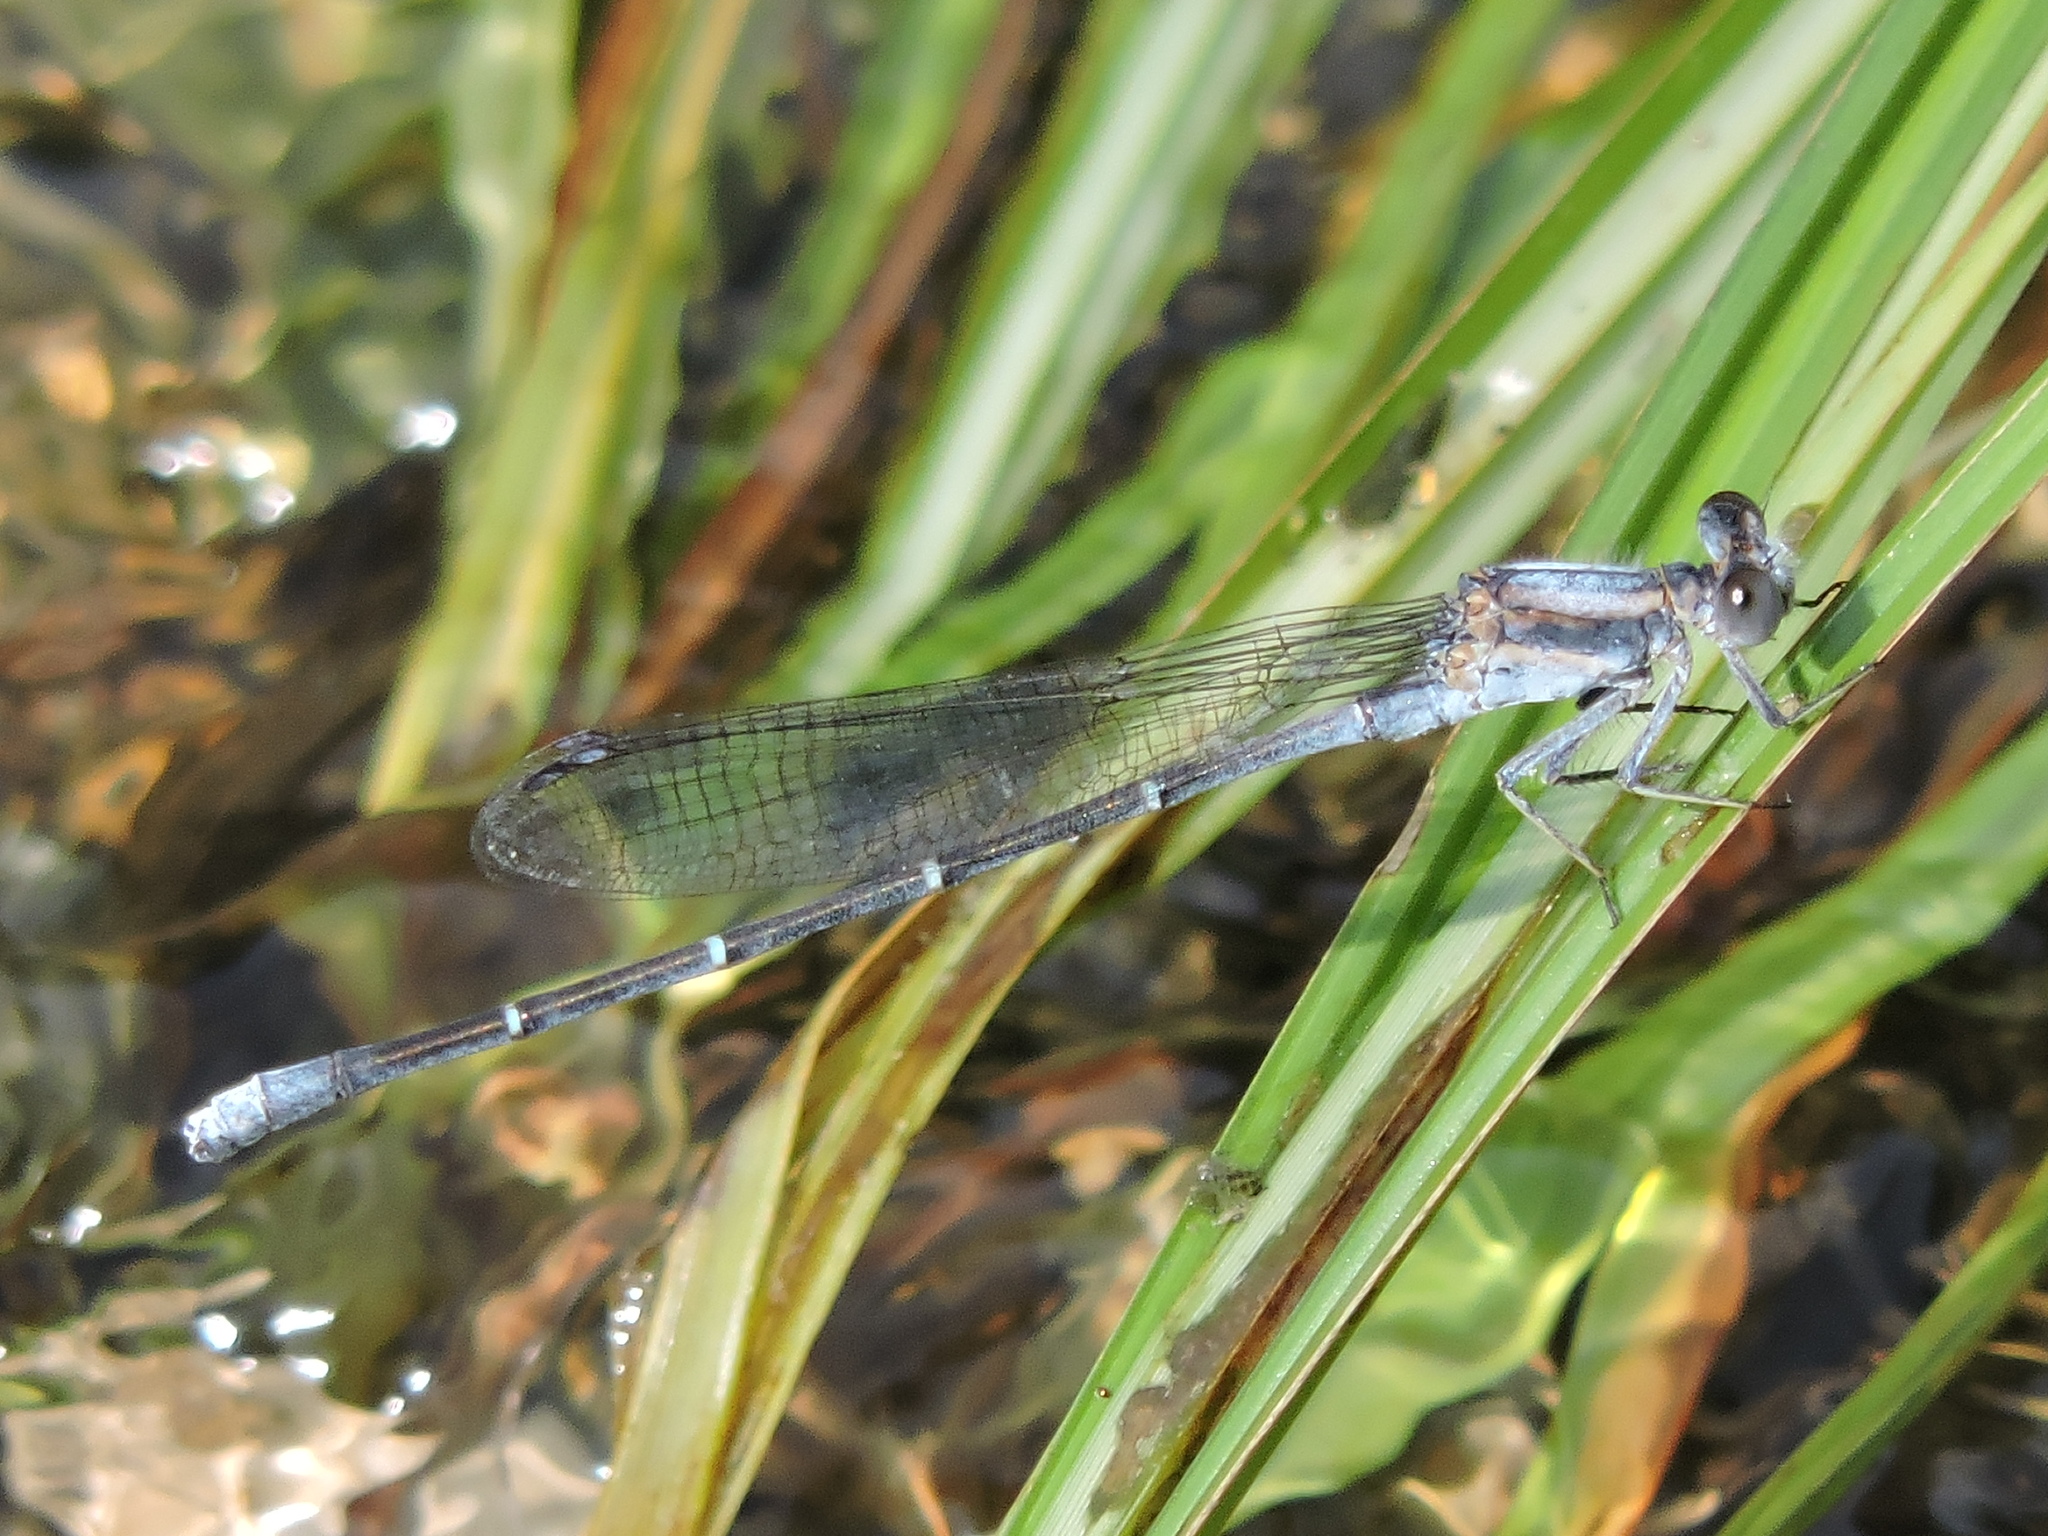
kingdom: Animalia
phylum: Arthropoda
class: Insecta
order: Odonata
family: Coenagrionidae
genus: Argia
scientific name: Argia moesta
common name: Powdered dancer
